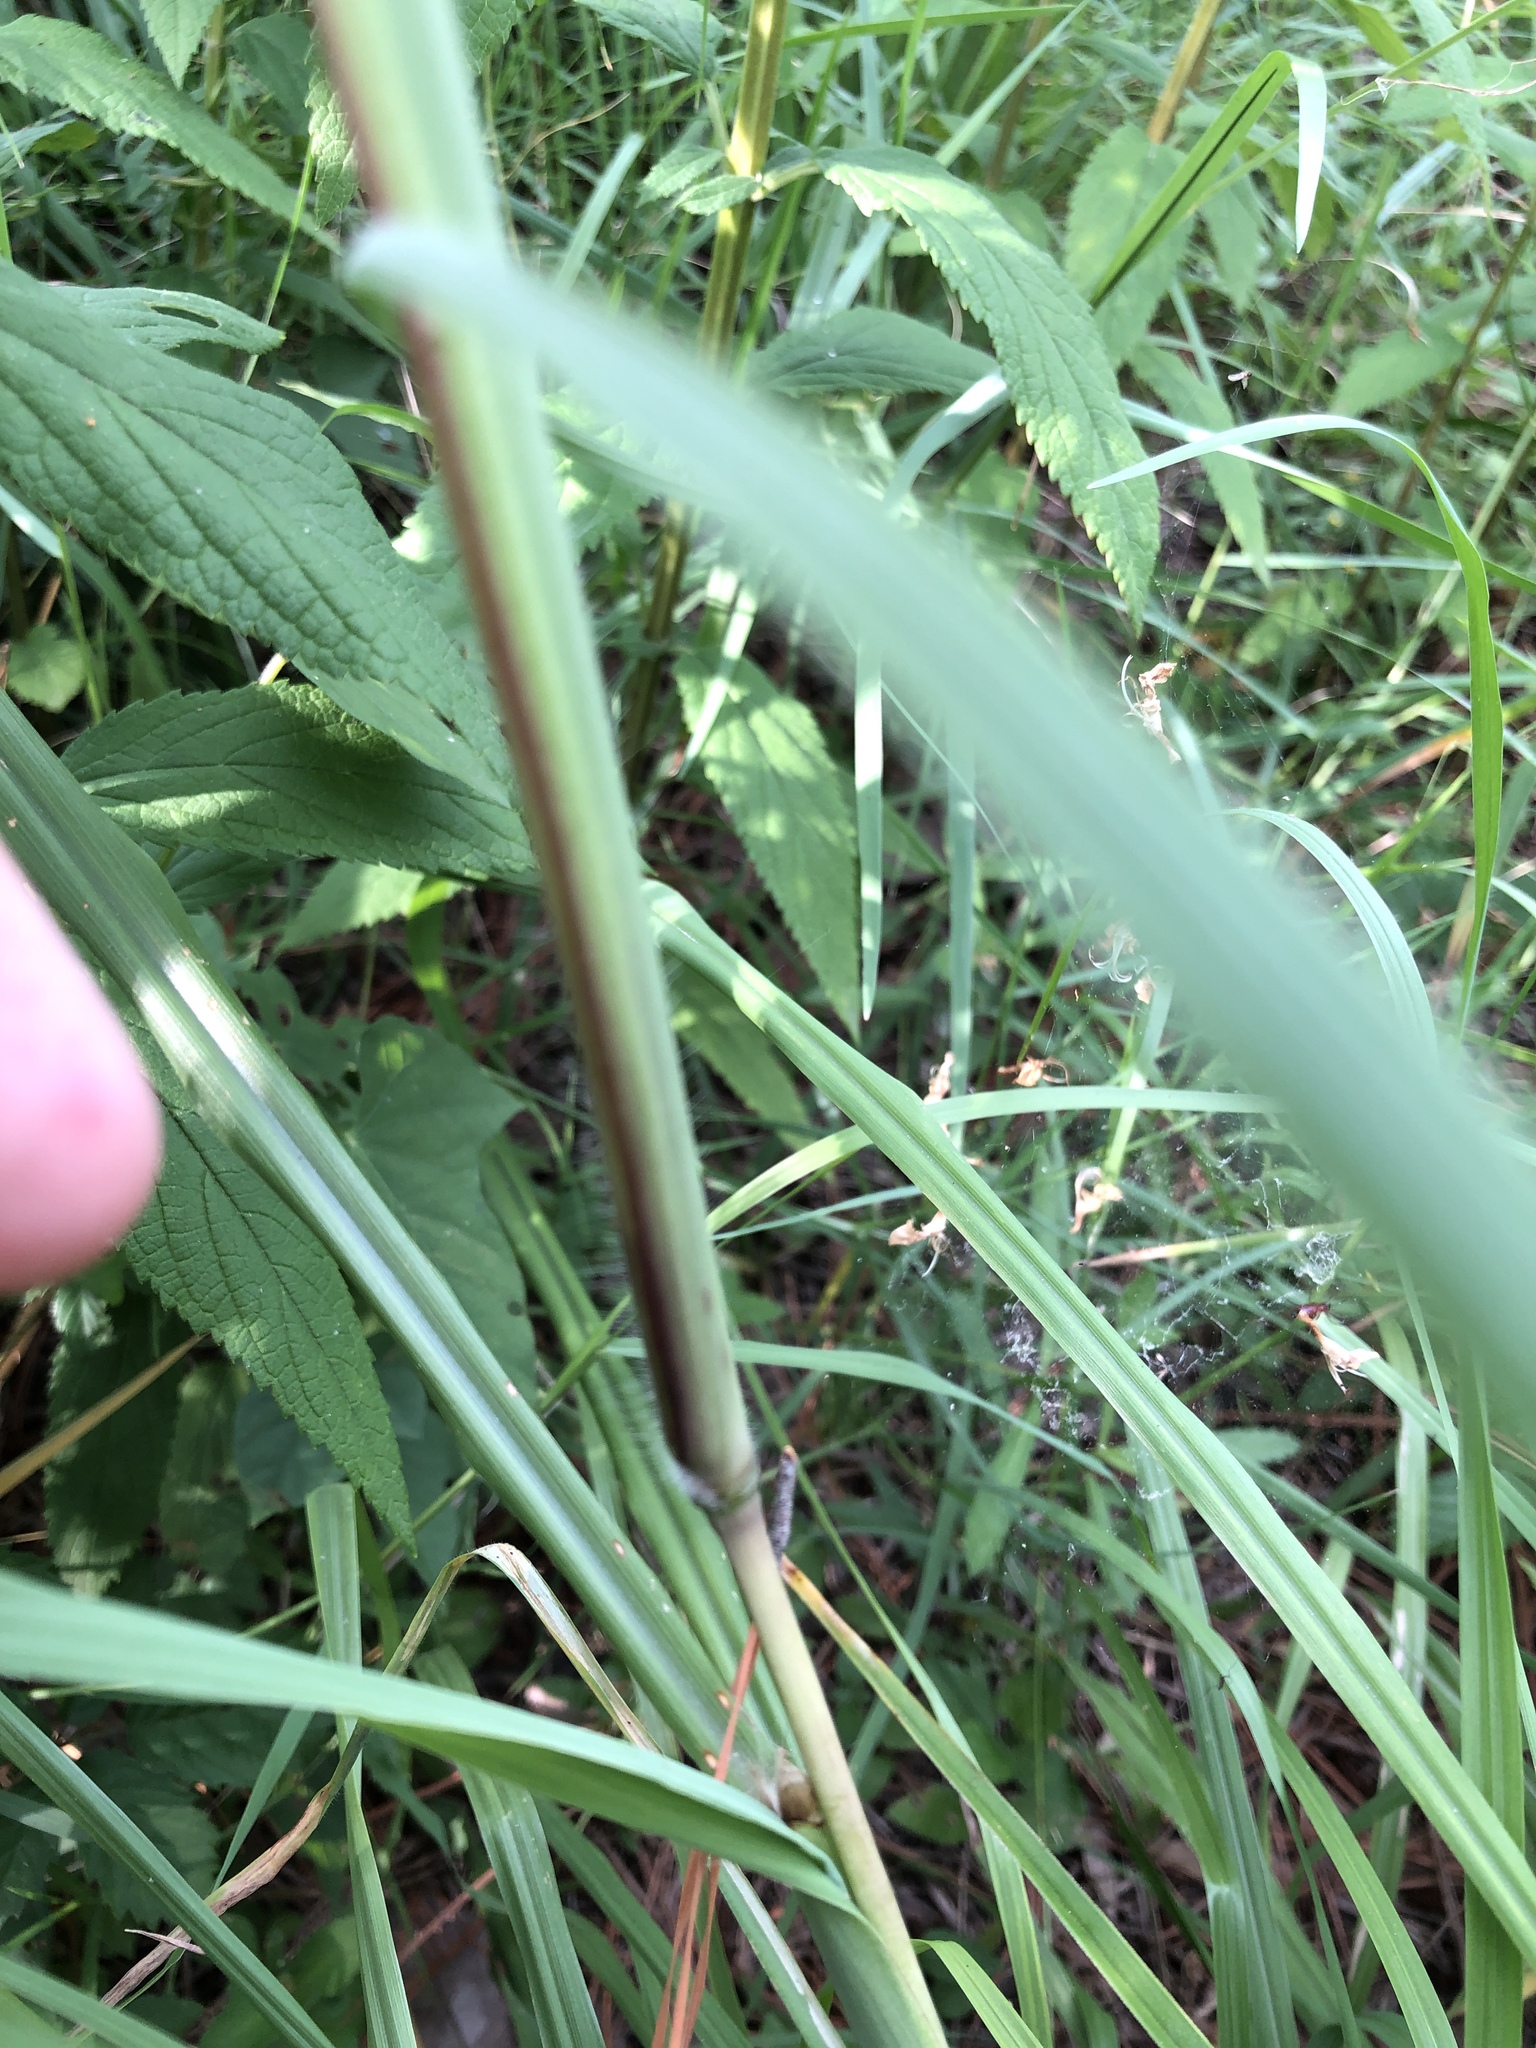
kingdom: Plantae
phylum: Tracheophyta
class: Liliopsida
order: Poales
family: Poaceae
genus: Paspalum
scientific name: Paspalum urvillei
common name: Vasey's grass
